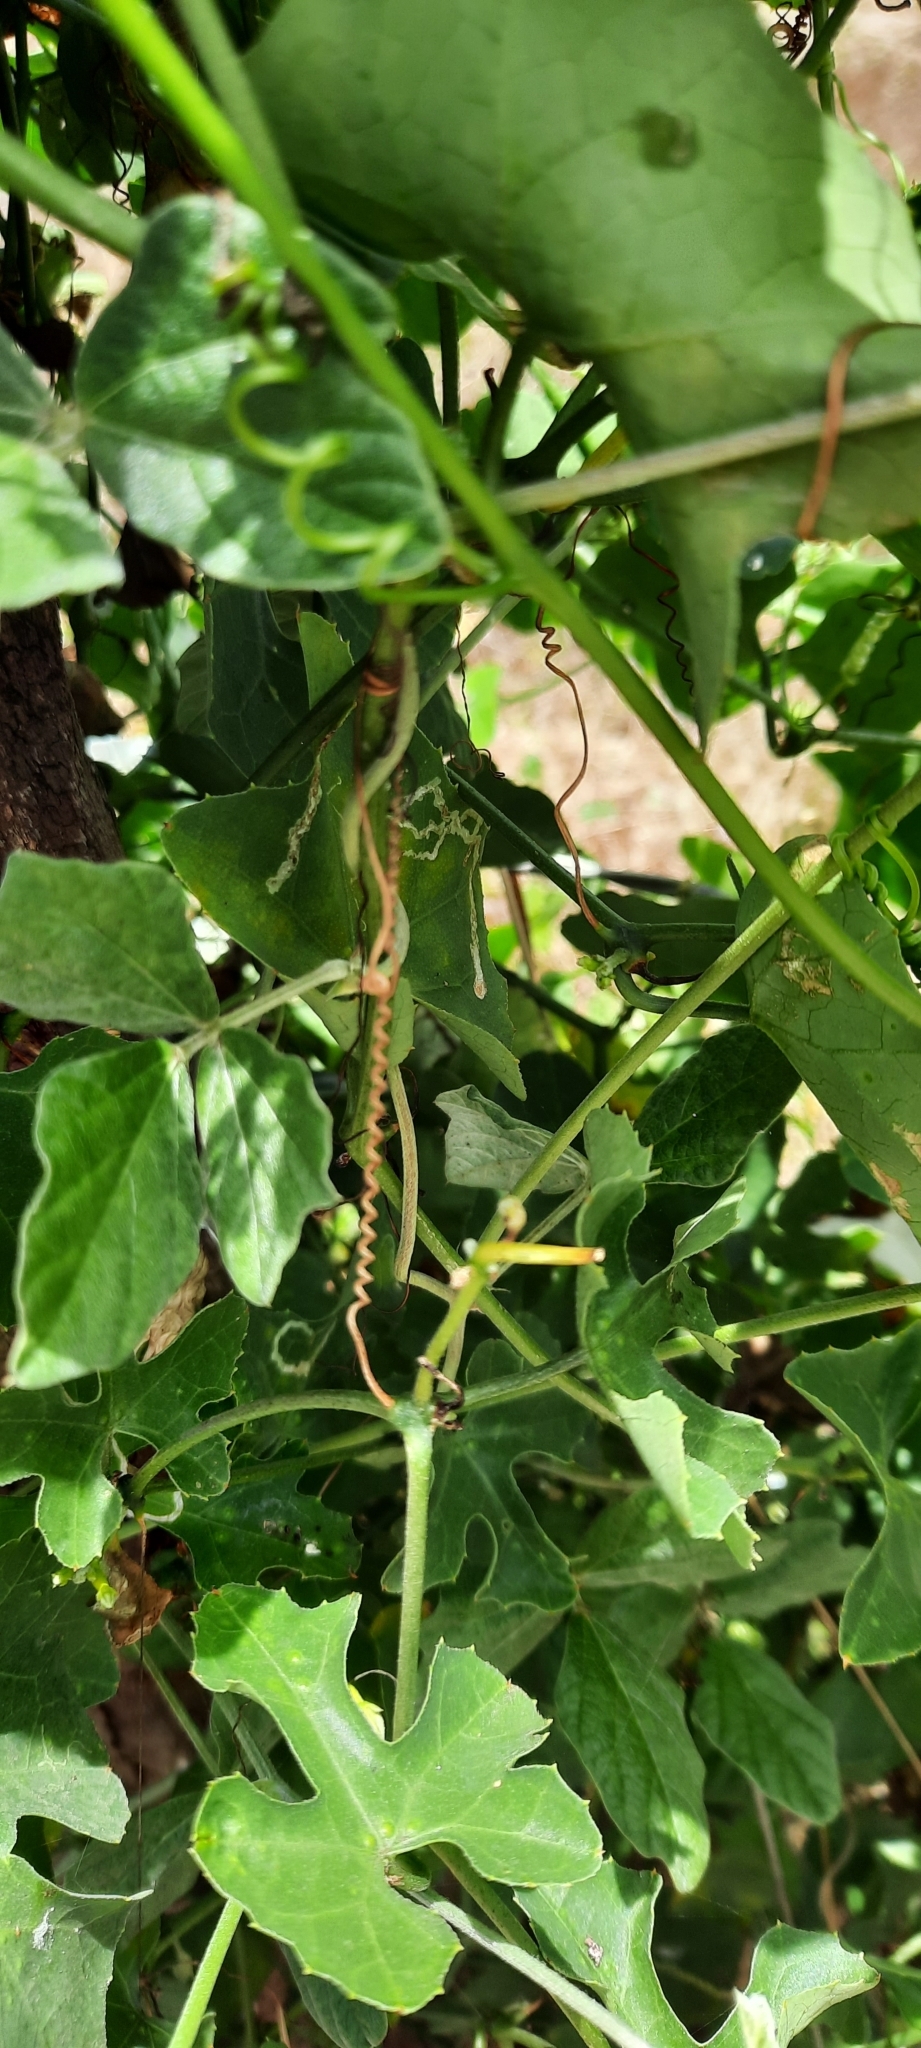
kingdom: Plantae
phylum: Tracheophyta
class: Magnoliopsida
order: Cucurbitales
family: Cucurbitaceae
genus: Coccinia
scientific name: Coccinia grandis
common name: Ivy gourd
